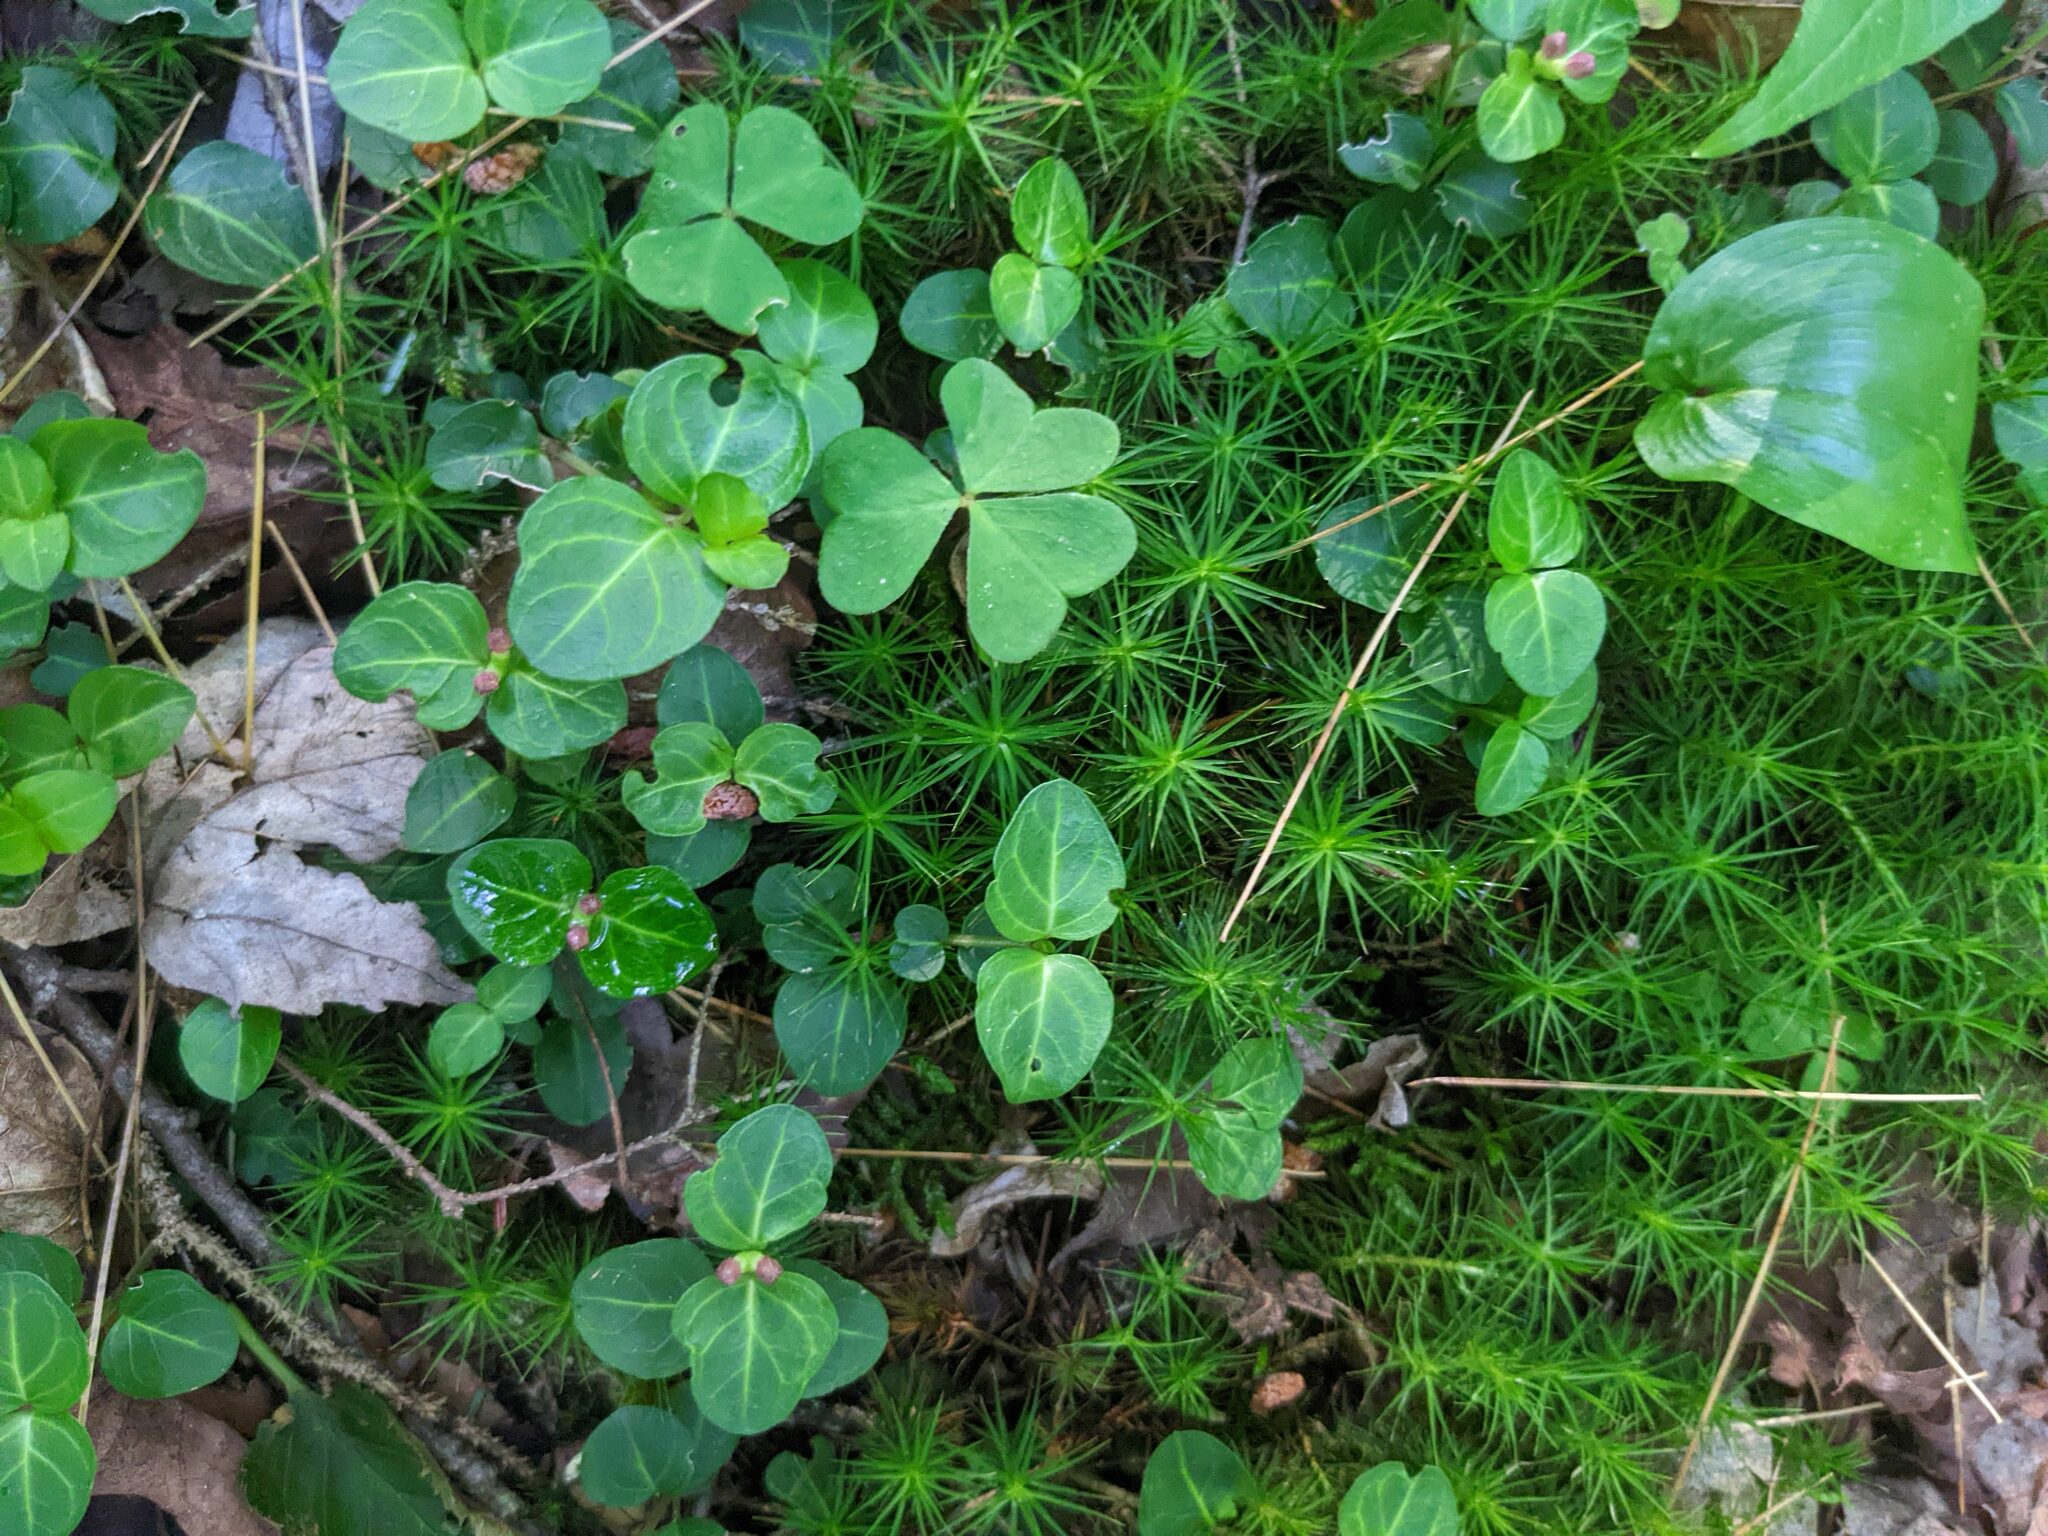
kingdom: Plantae
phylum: Tracheophyta
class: Magnoliopsida
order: Gentianales
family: Rubiaceae
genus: Mitchella
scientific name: Mitchella repens
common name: Partridge-berry
